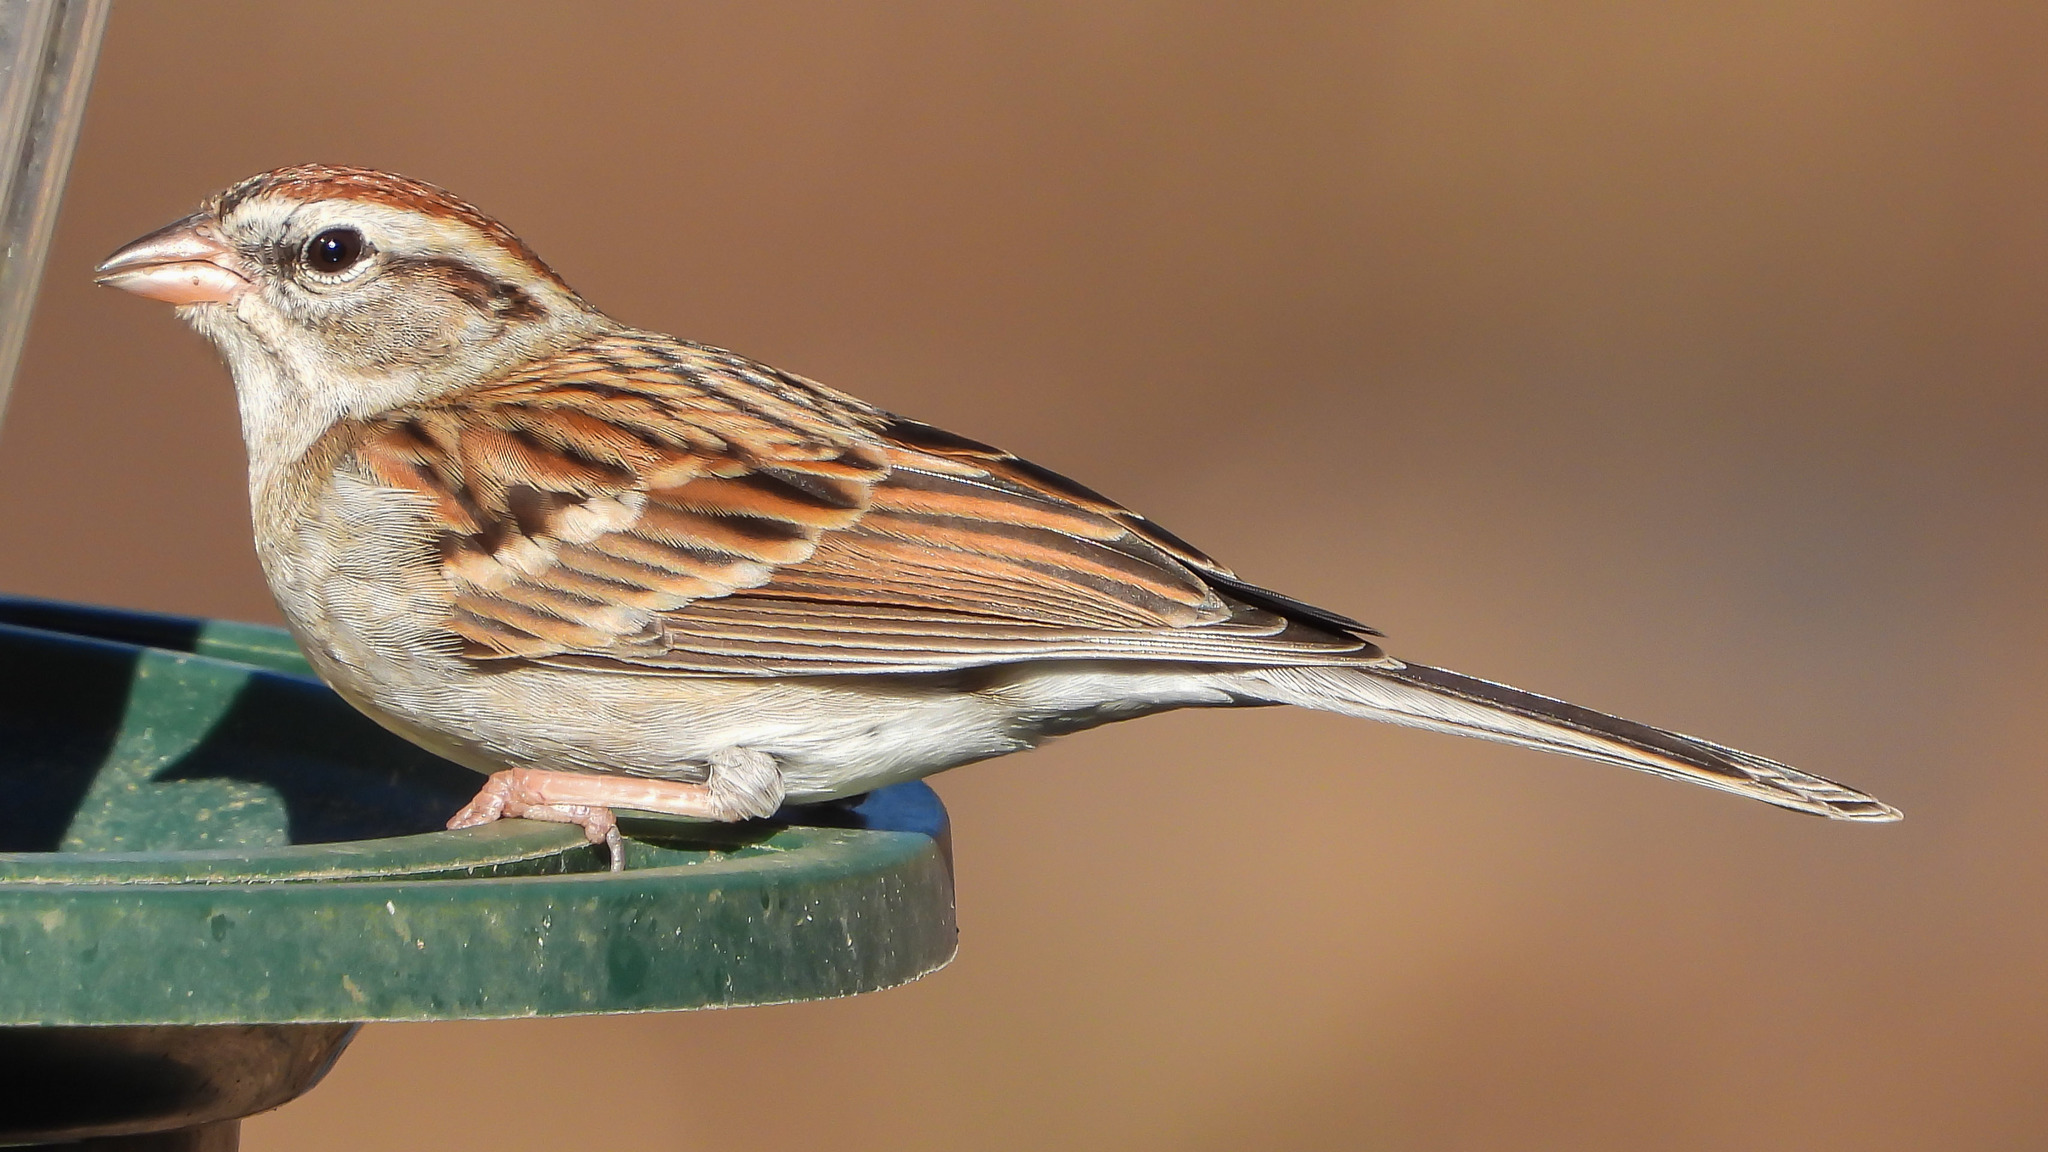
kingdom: Animalia
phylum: Chordata
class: Aves
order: Passeriformes
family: Passerellidae
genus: Spizella
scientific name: Spizella passerina
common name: Chipping sparrow
